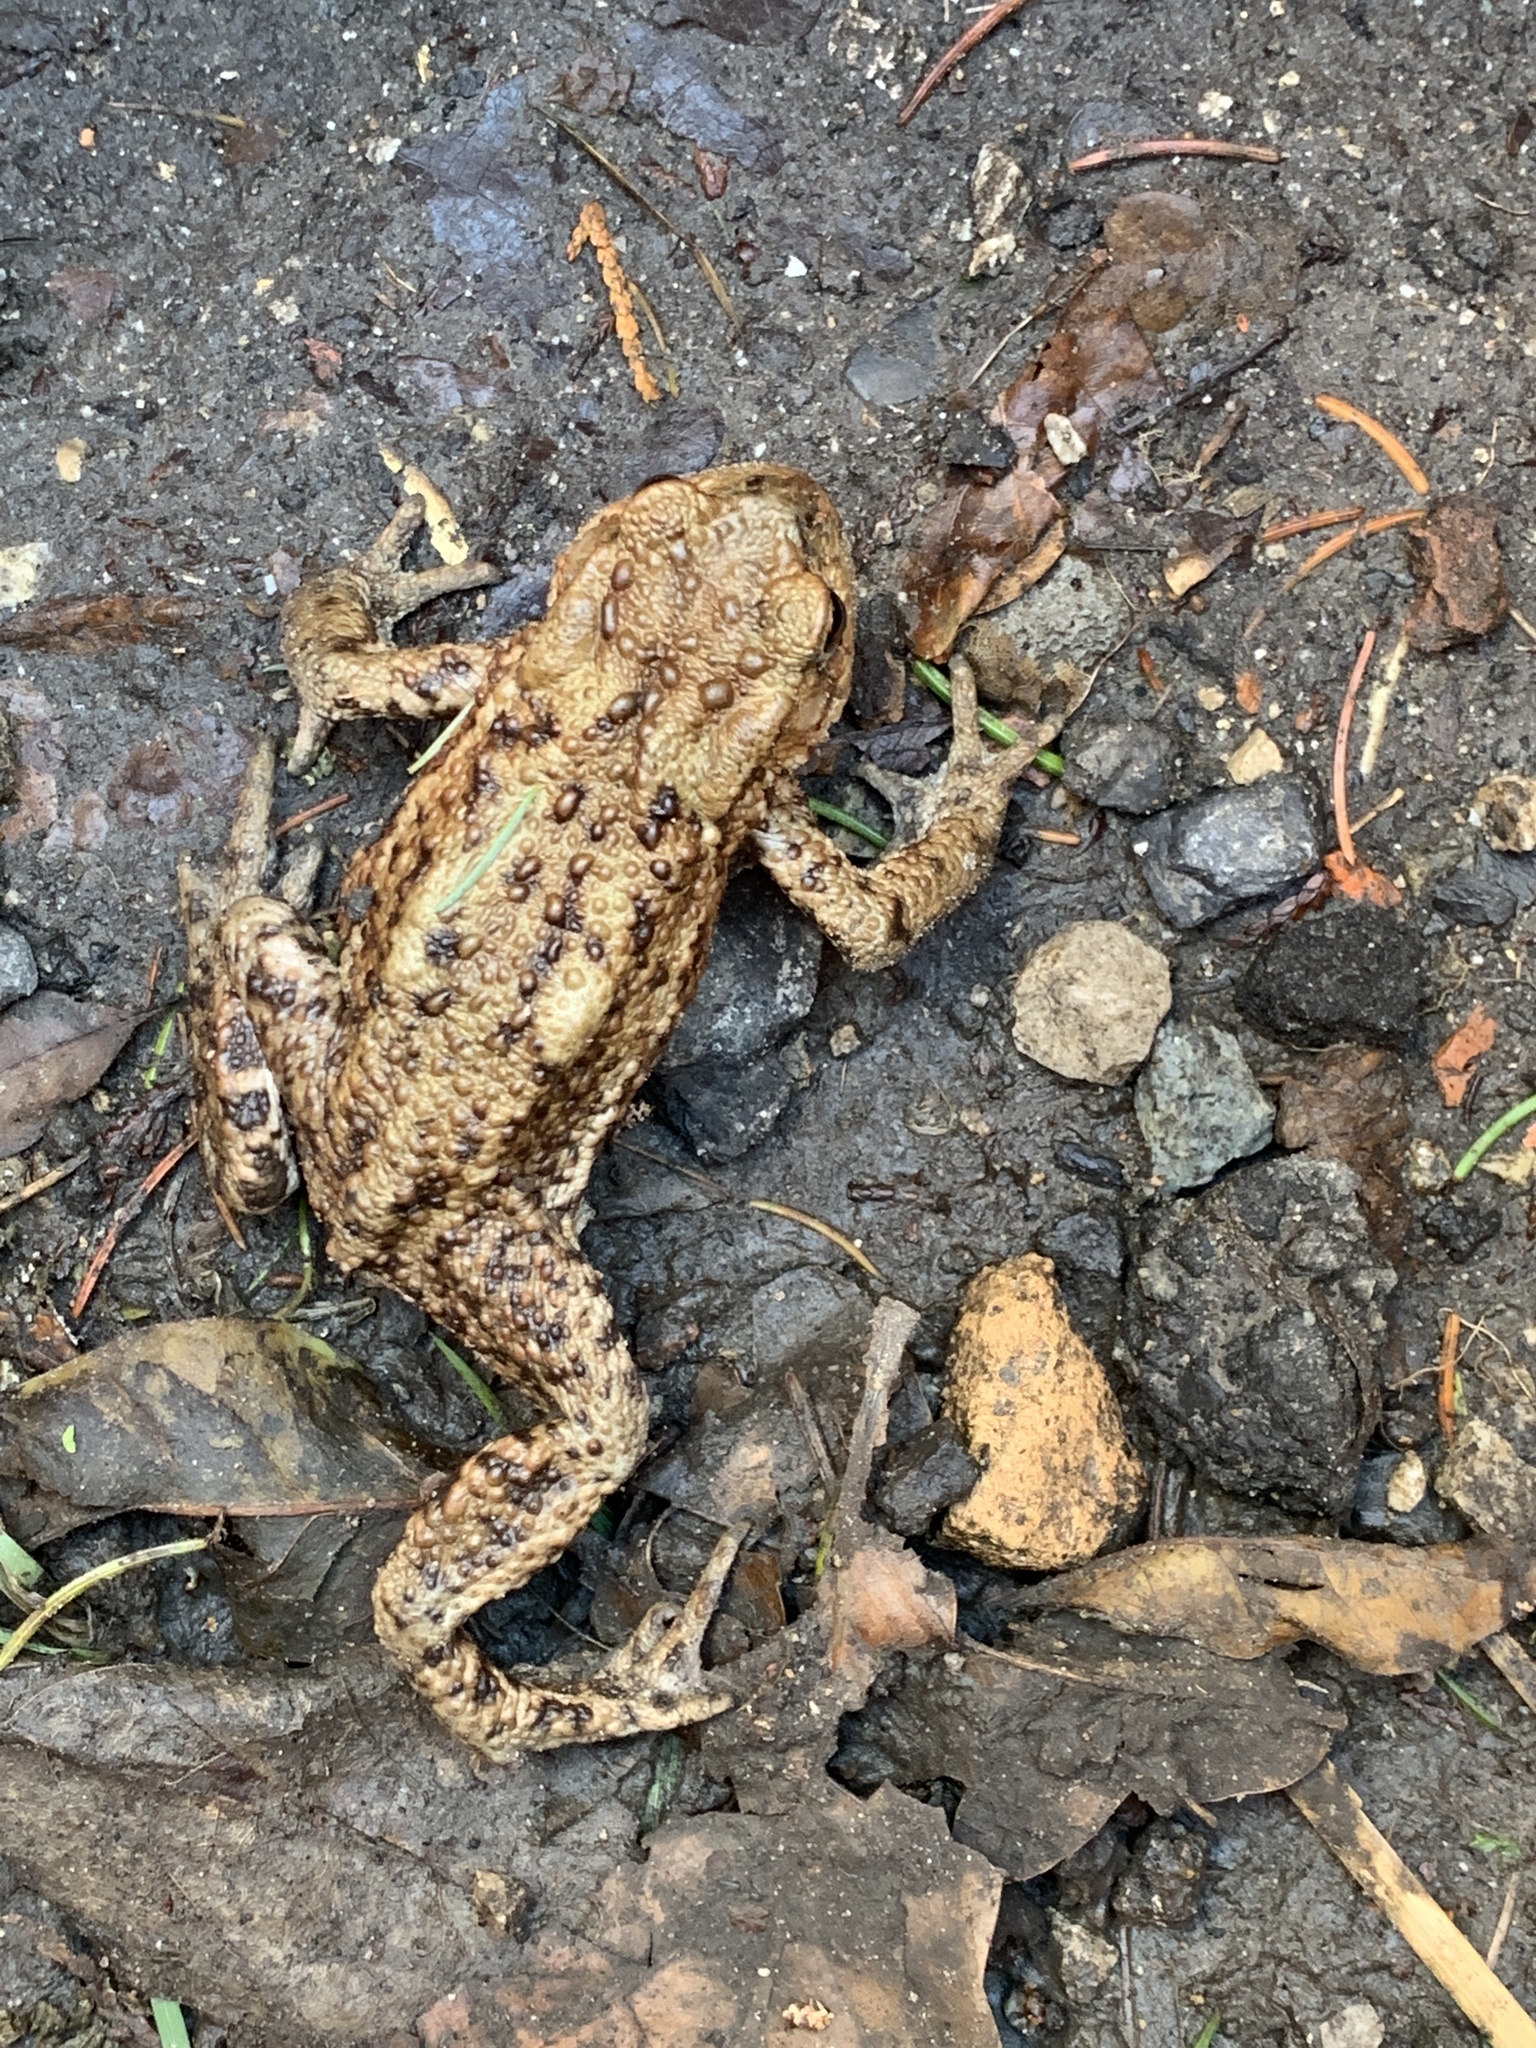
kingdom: Animalia
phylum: Chordata
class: Amphibia
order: Anura
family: Bufonidae
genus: Bufo
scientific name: Bufo bufo
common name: Common toad
